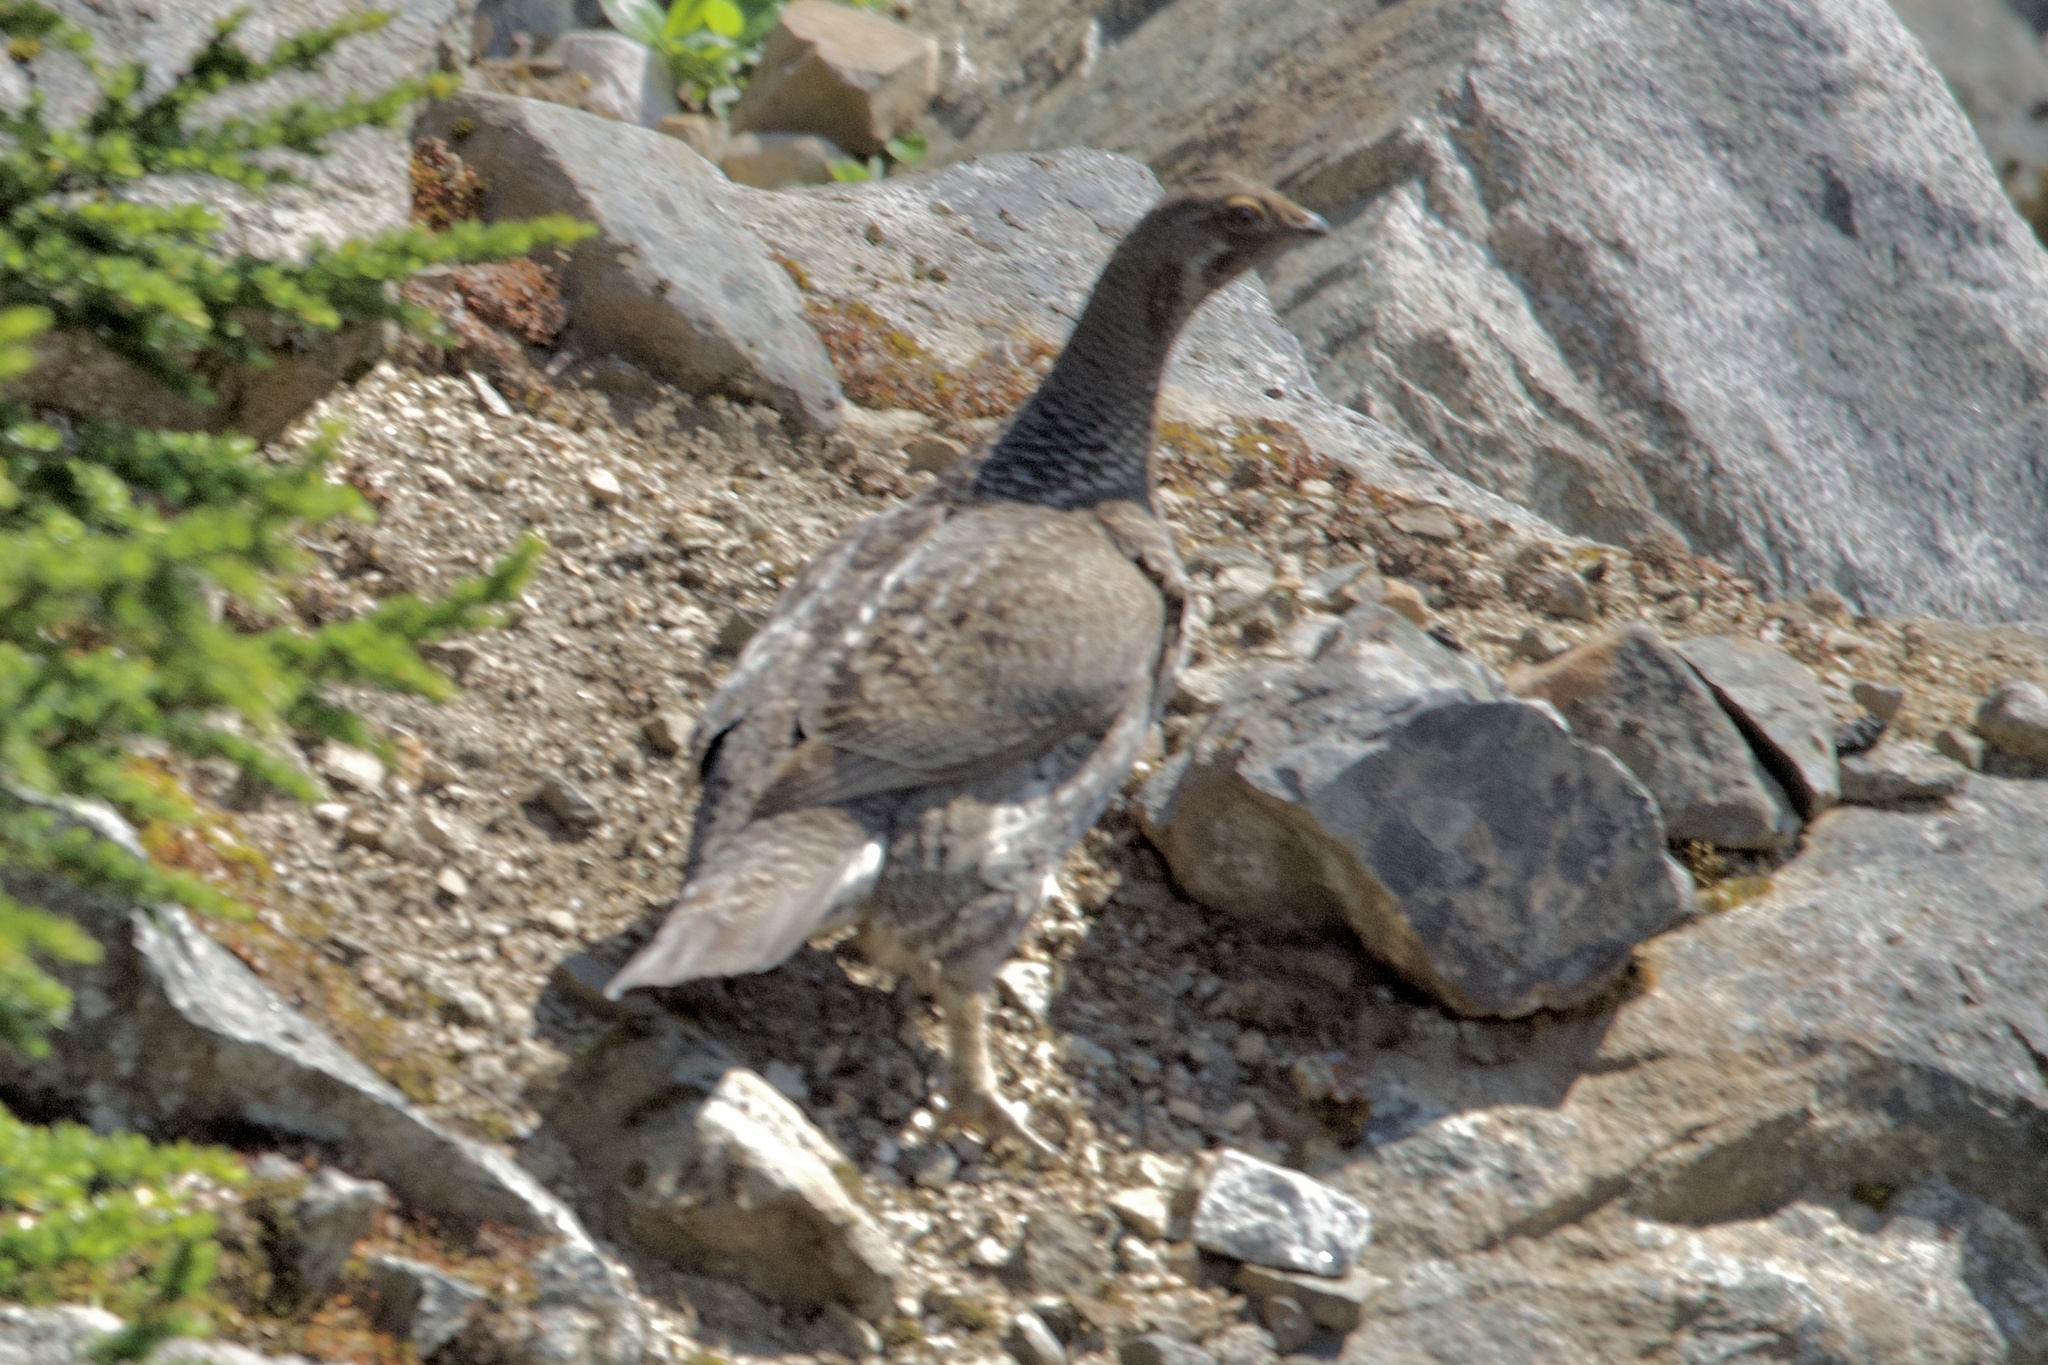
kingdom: Animalia
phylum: Chordata
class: Aves
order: Galliformes
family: Phasianidae
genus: Dendragapus
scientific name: Dendragapus fuliginosus
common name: Sooty grouse
